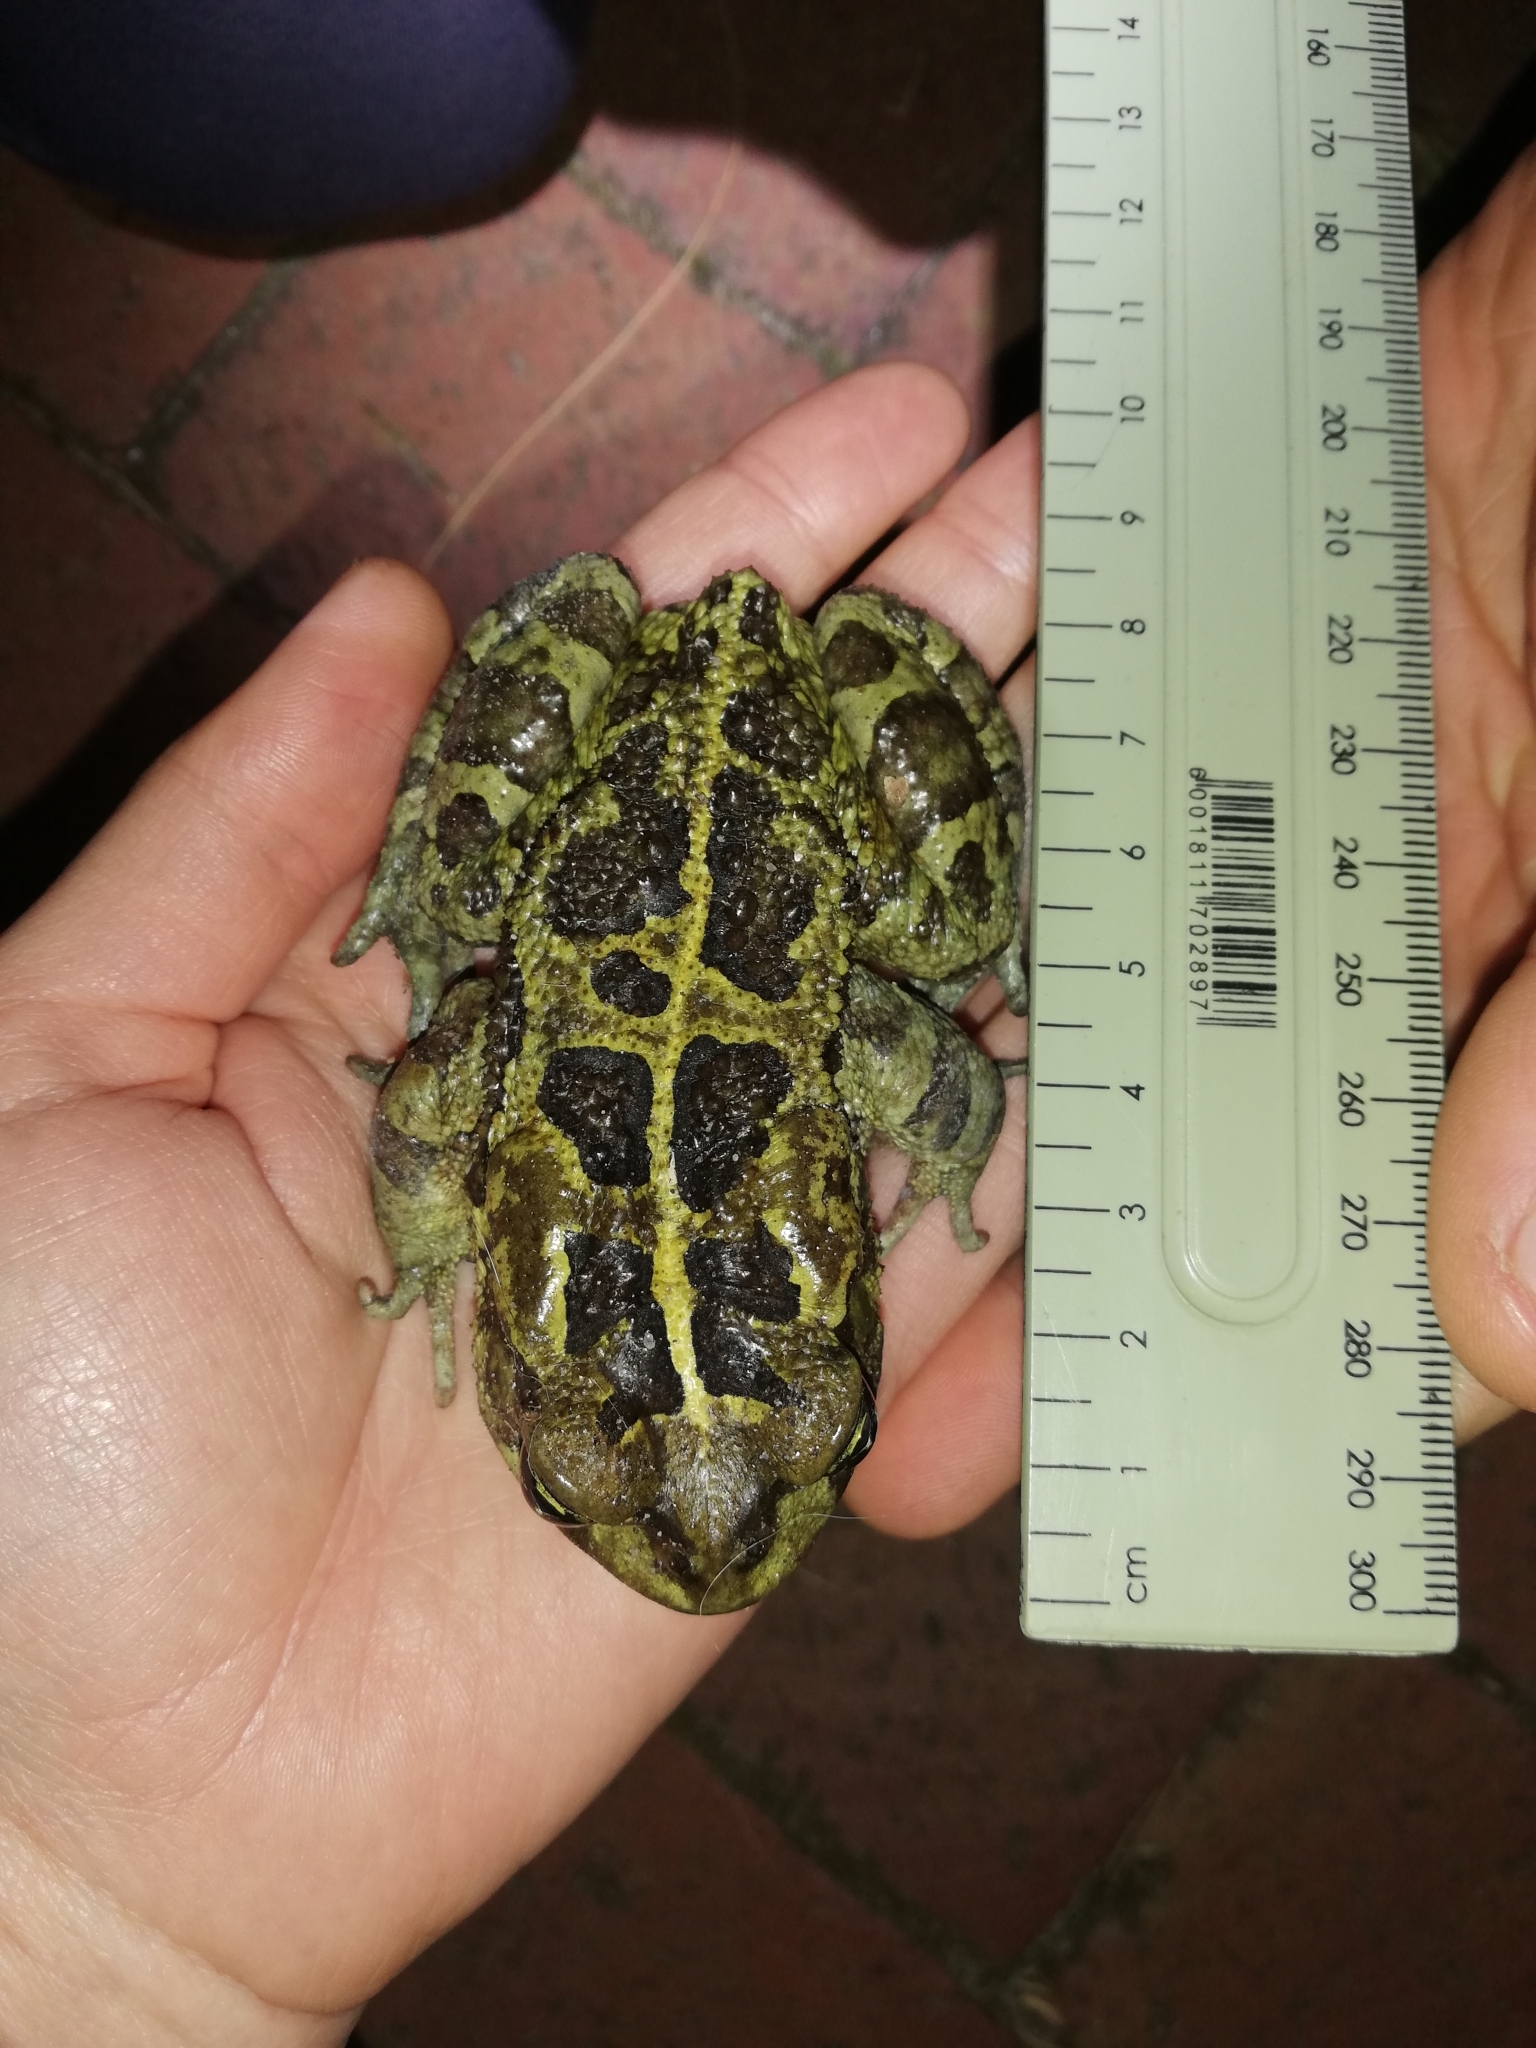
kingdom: Animalia
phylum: Chordata
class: Amphibia
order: Anura
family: Bufonidae
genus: Sclerophrys
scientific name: Sclerophrys pantherina
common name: Panther toad
